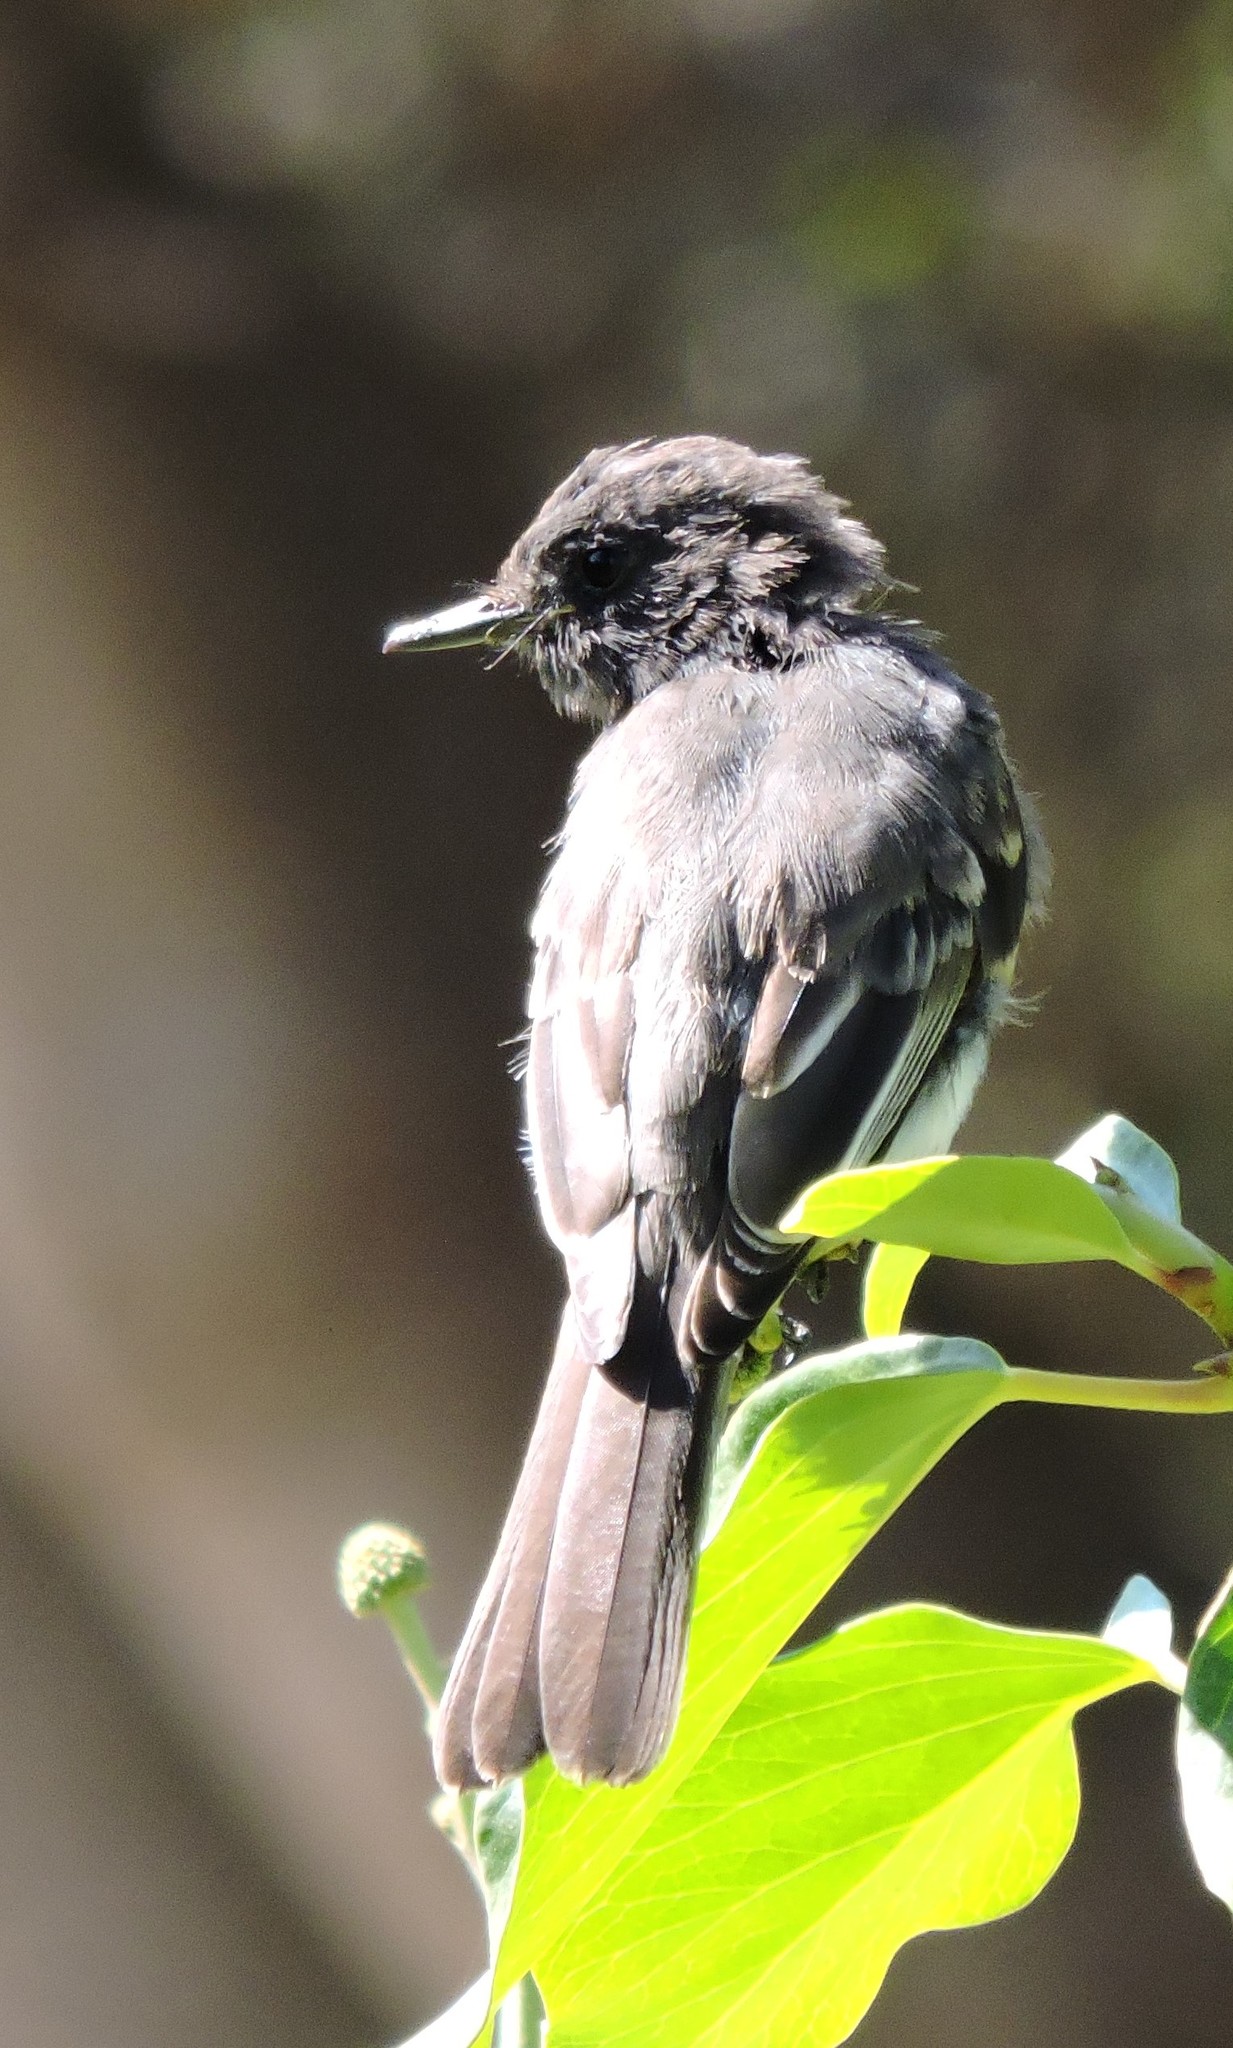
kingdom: Animalia
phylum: Chordata
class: Aves
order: Passeriformes
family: Tyrannidae
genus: Sayornis
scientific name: Sayornis nigricans
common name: Black phoebe
